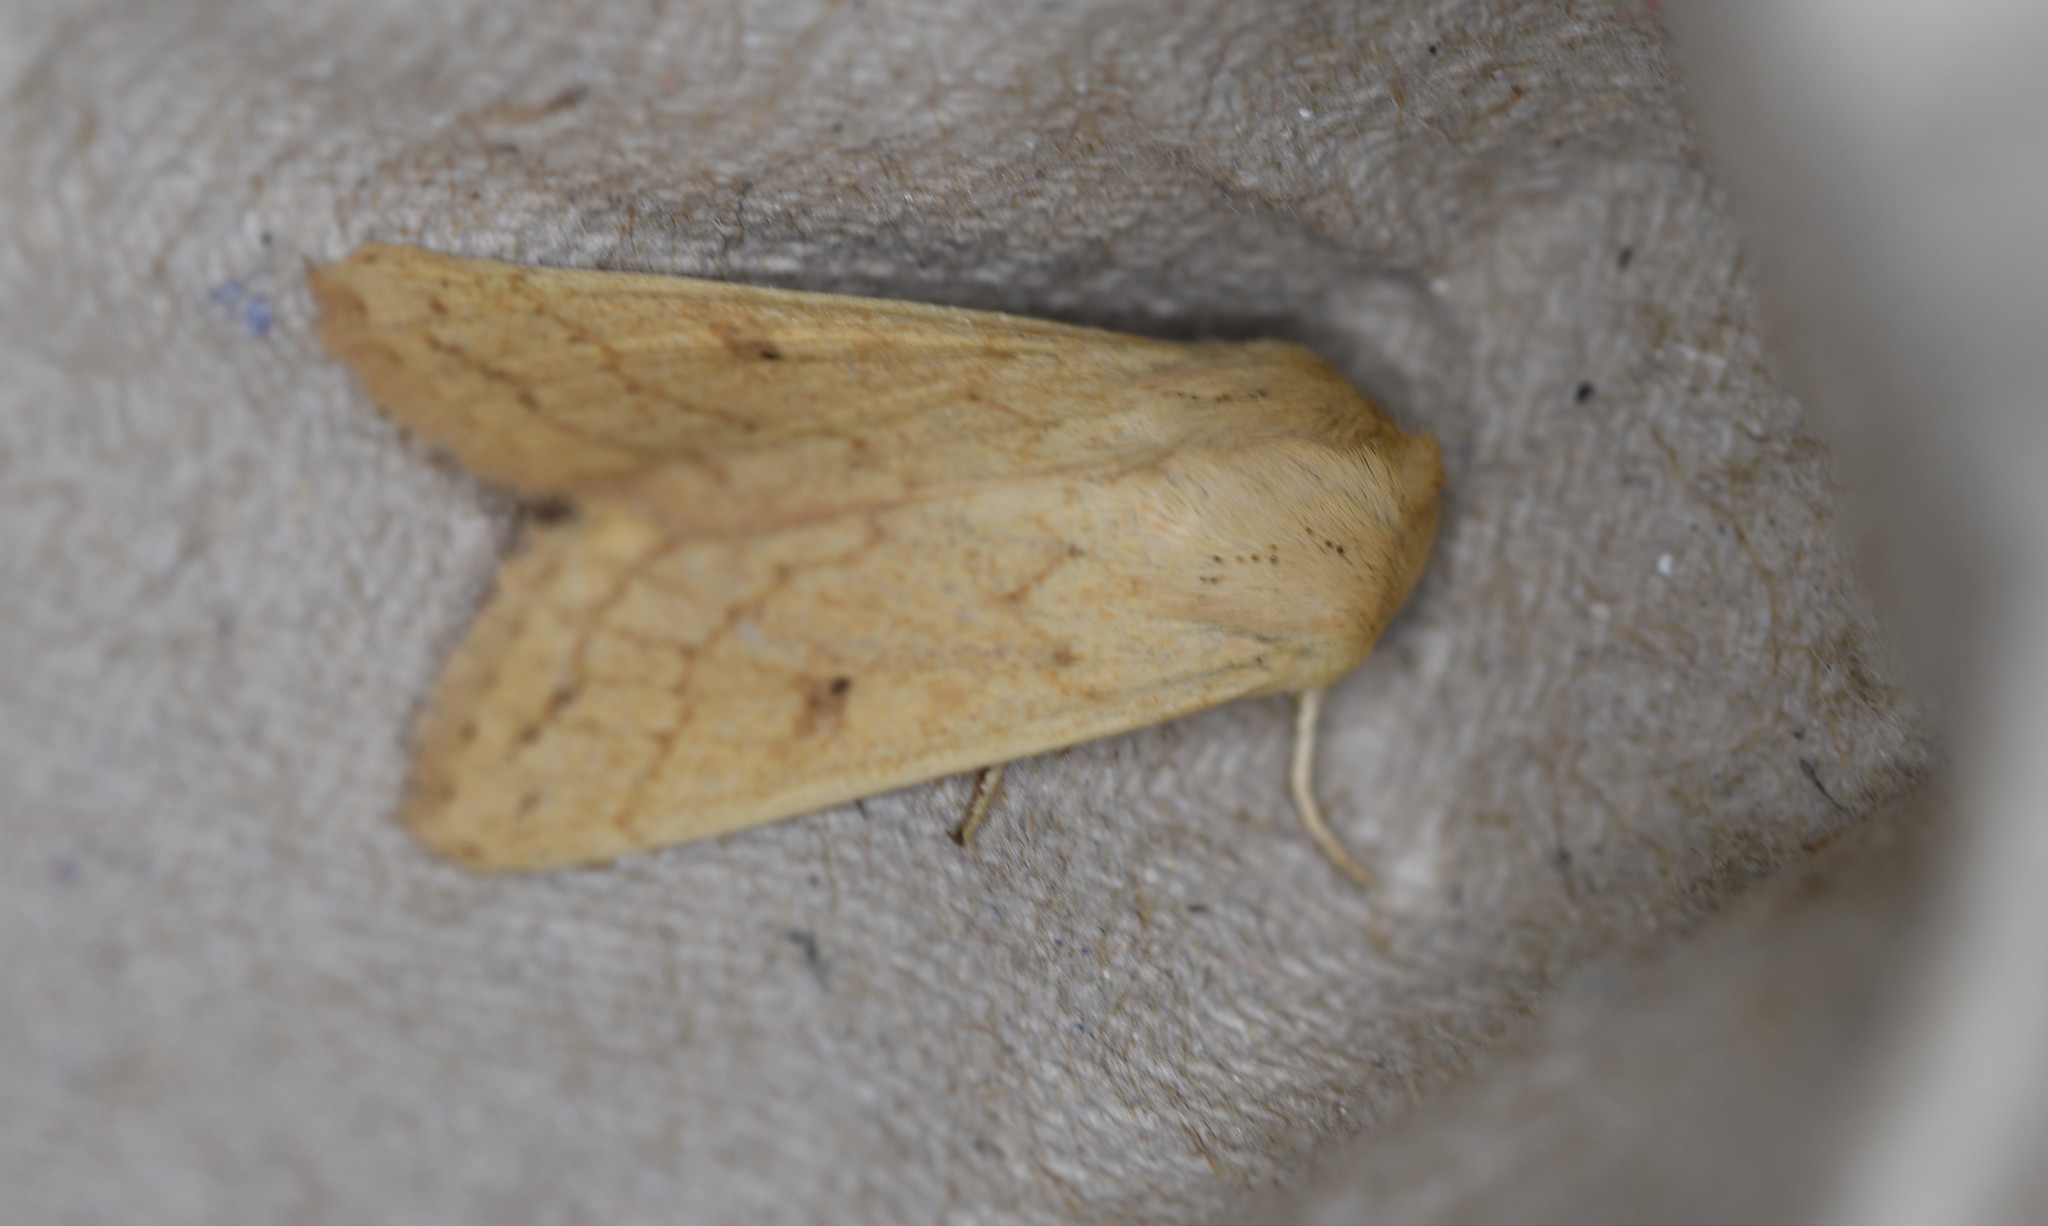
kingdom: Animalia
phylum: Arthropoda
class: Insecta
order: Lepidoptera
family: Noctuidae
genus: Mythimna
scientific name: Mythimna vitellina
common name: Delicate
